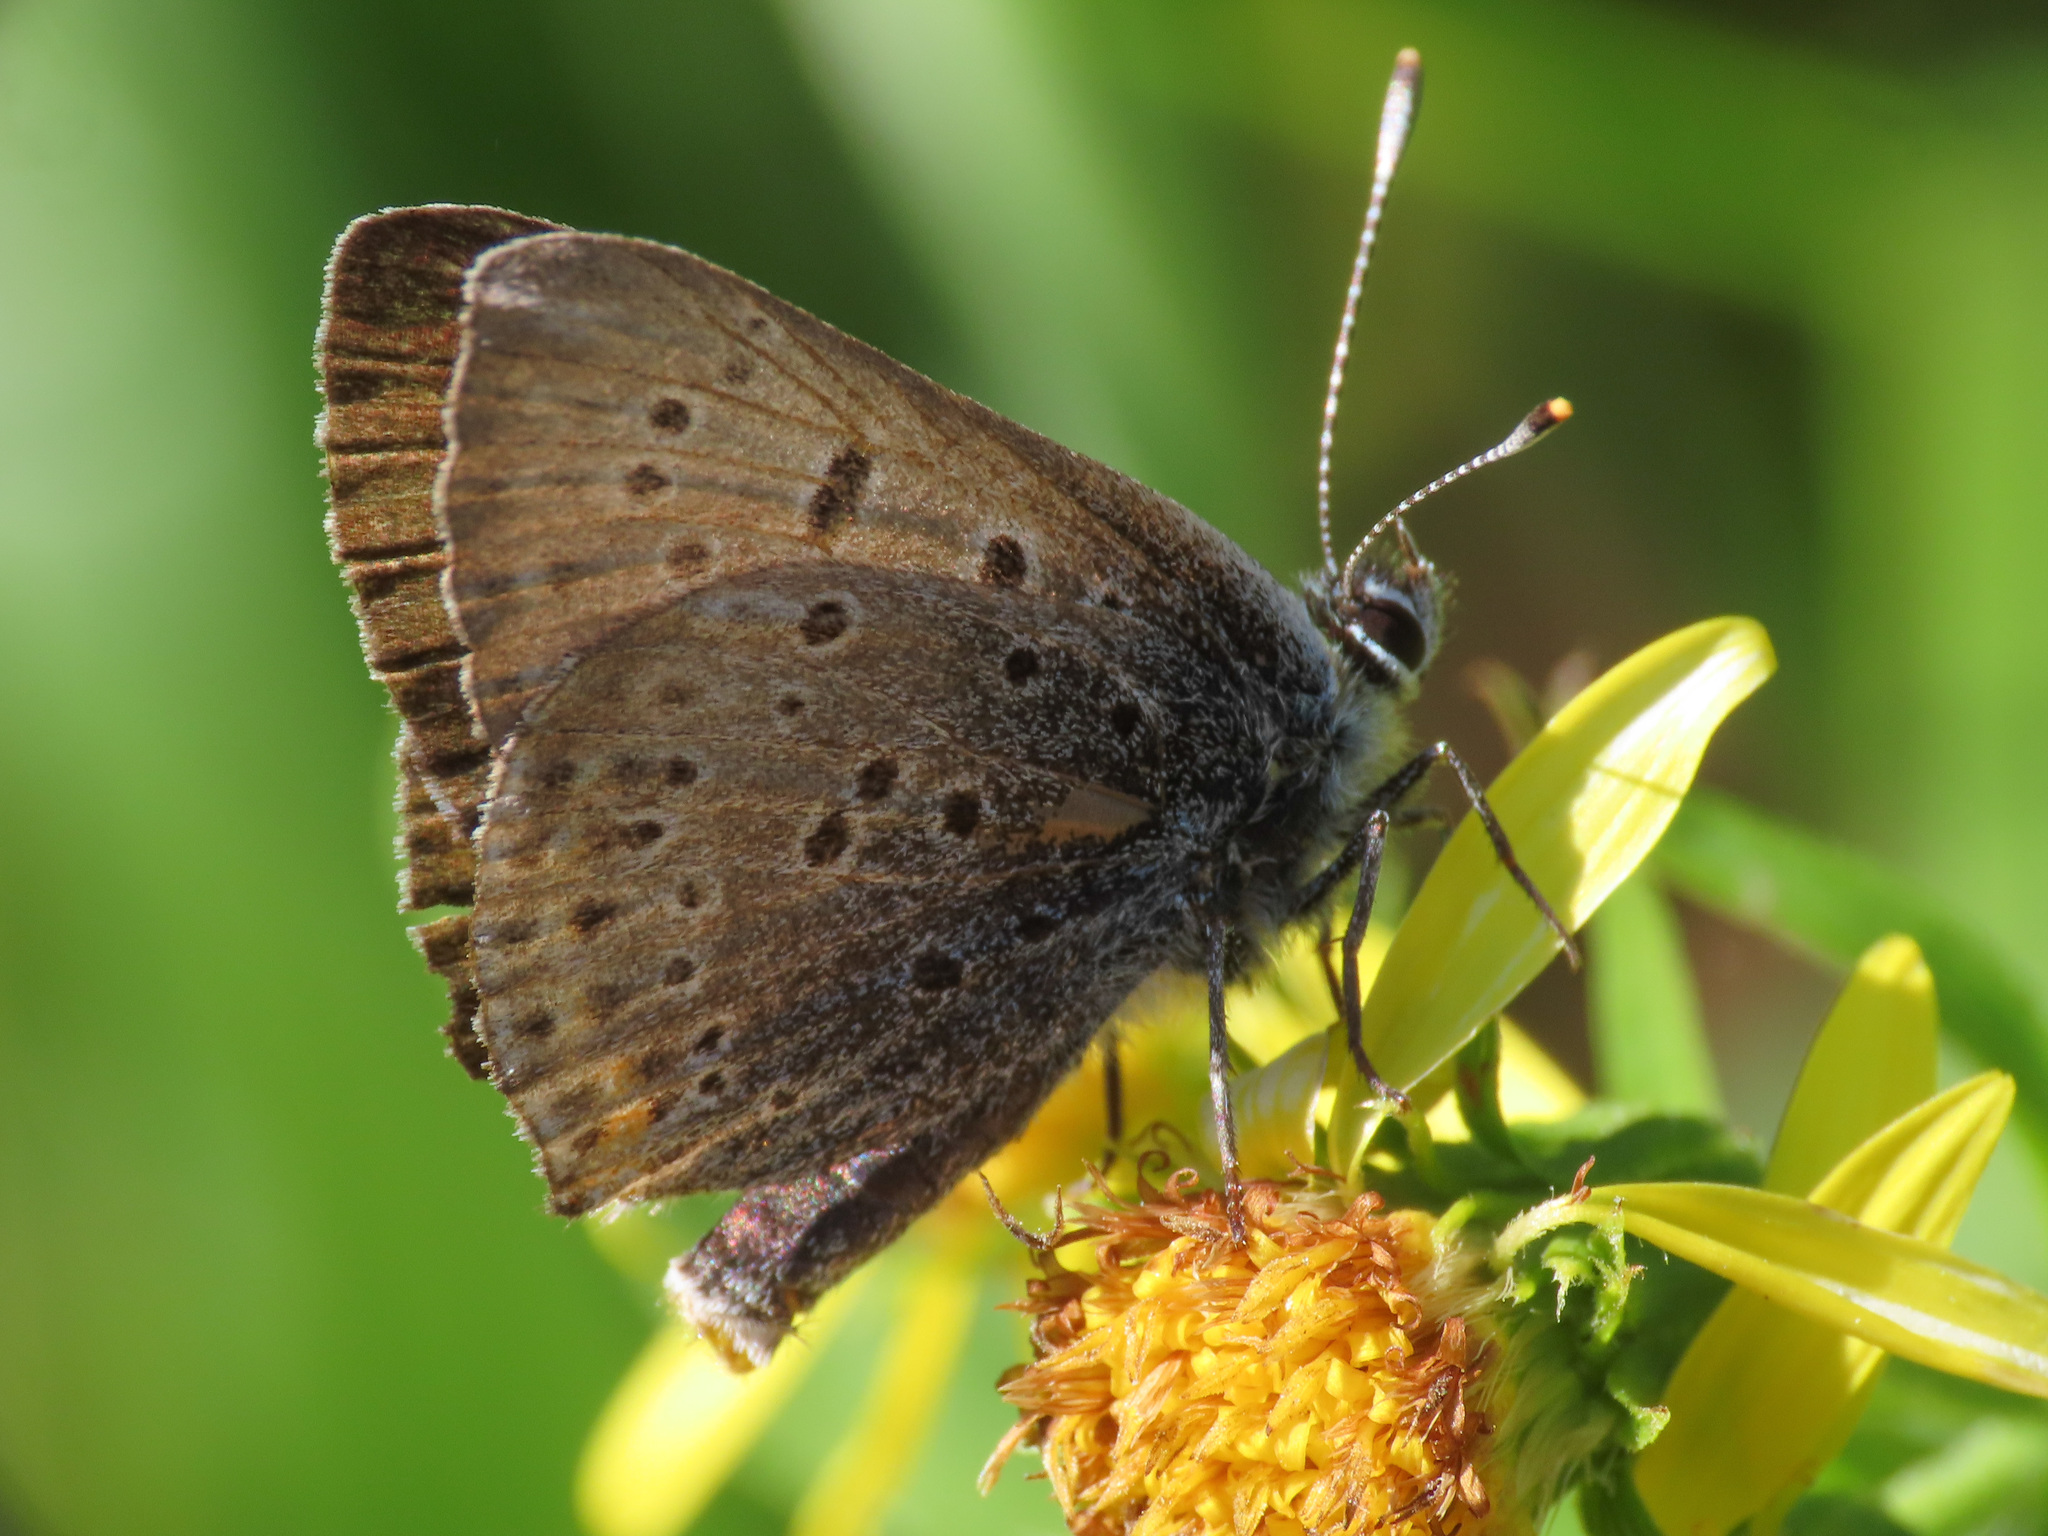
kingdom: Animalia
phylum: Arthropoda
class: Insecta
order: Lepidoptera
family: Lycaenidae
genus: Loweia
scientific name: Loweia tityrus
